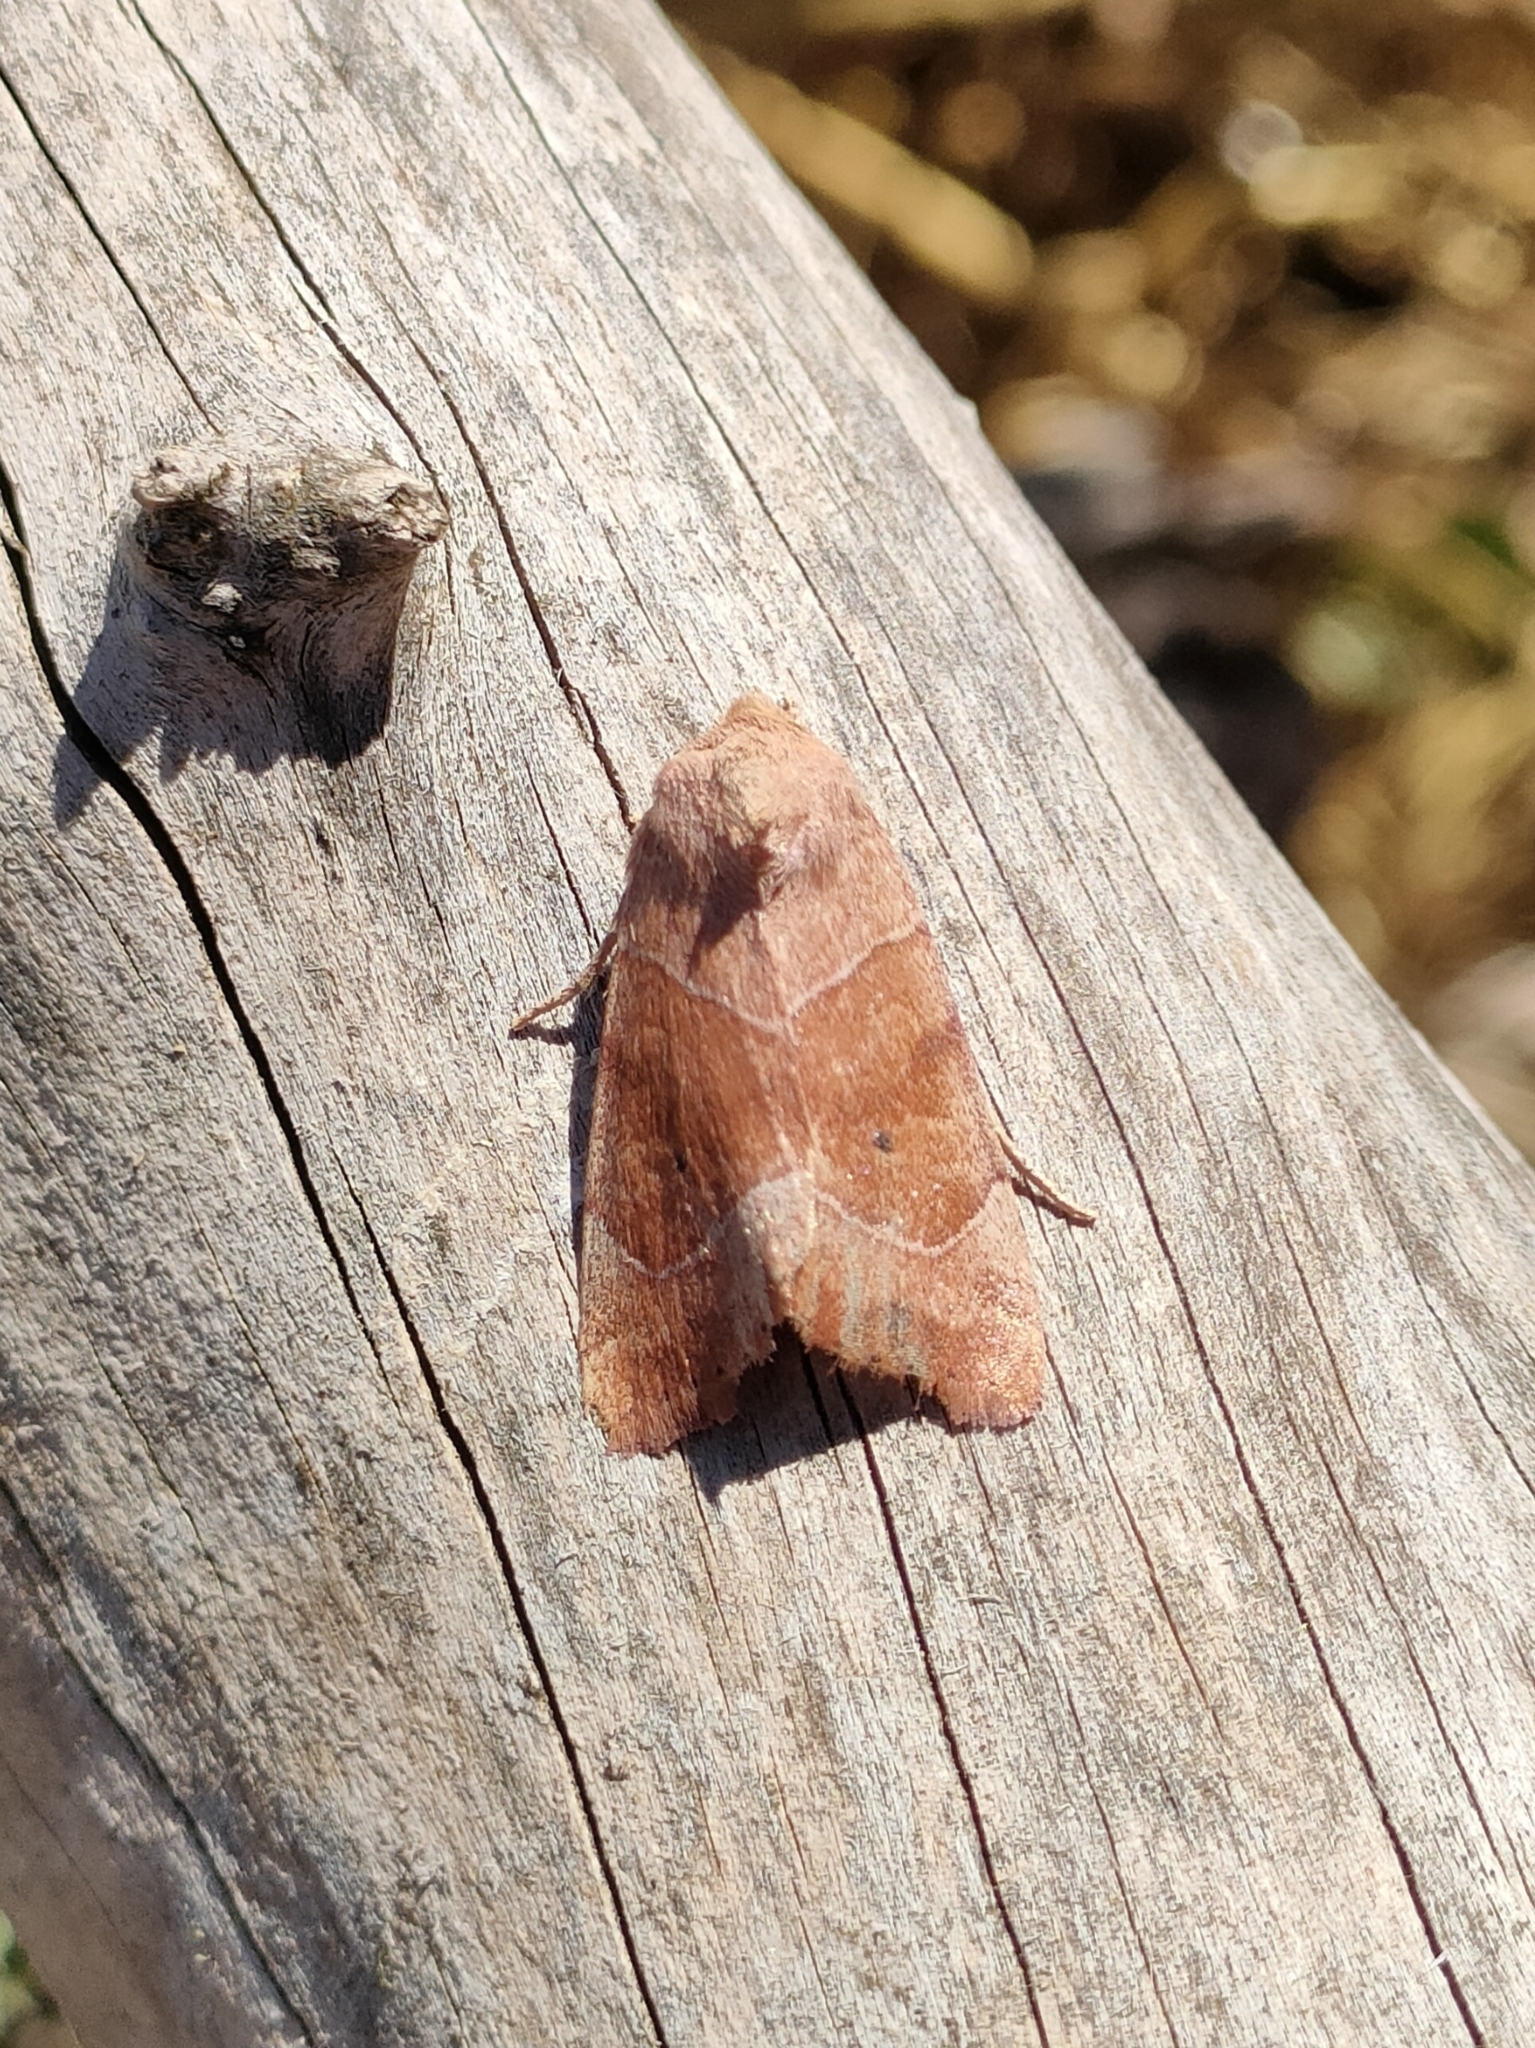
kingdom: Animalia
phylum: Arthropoda
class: Insecta
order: Lepidoptera
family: Noctuidae
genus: Cosmia
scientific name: Cosmia trapezina
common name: Dun-bar
